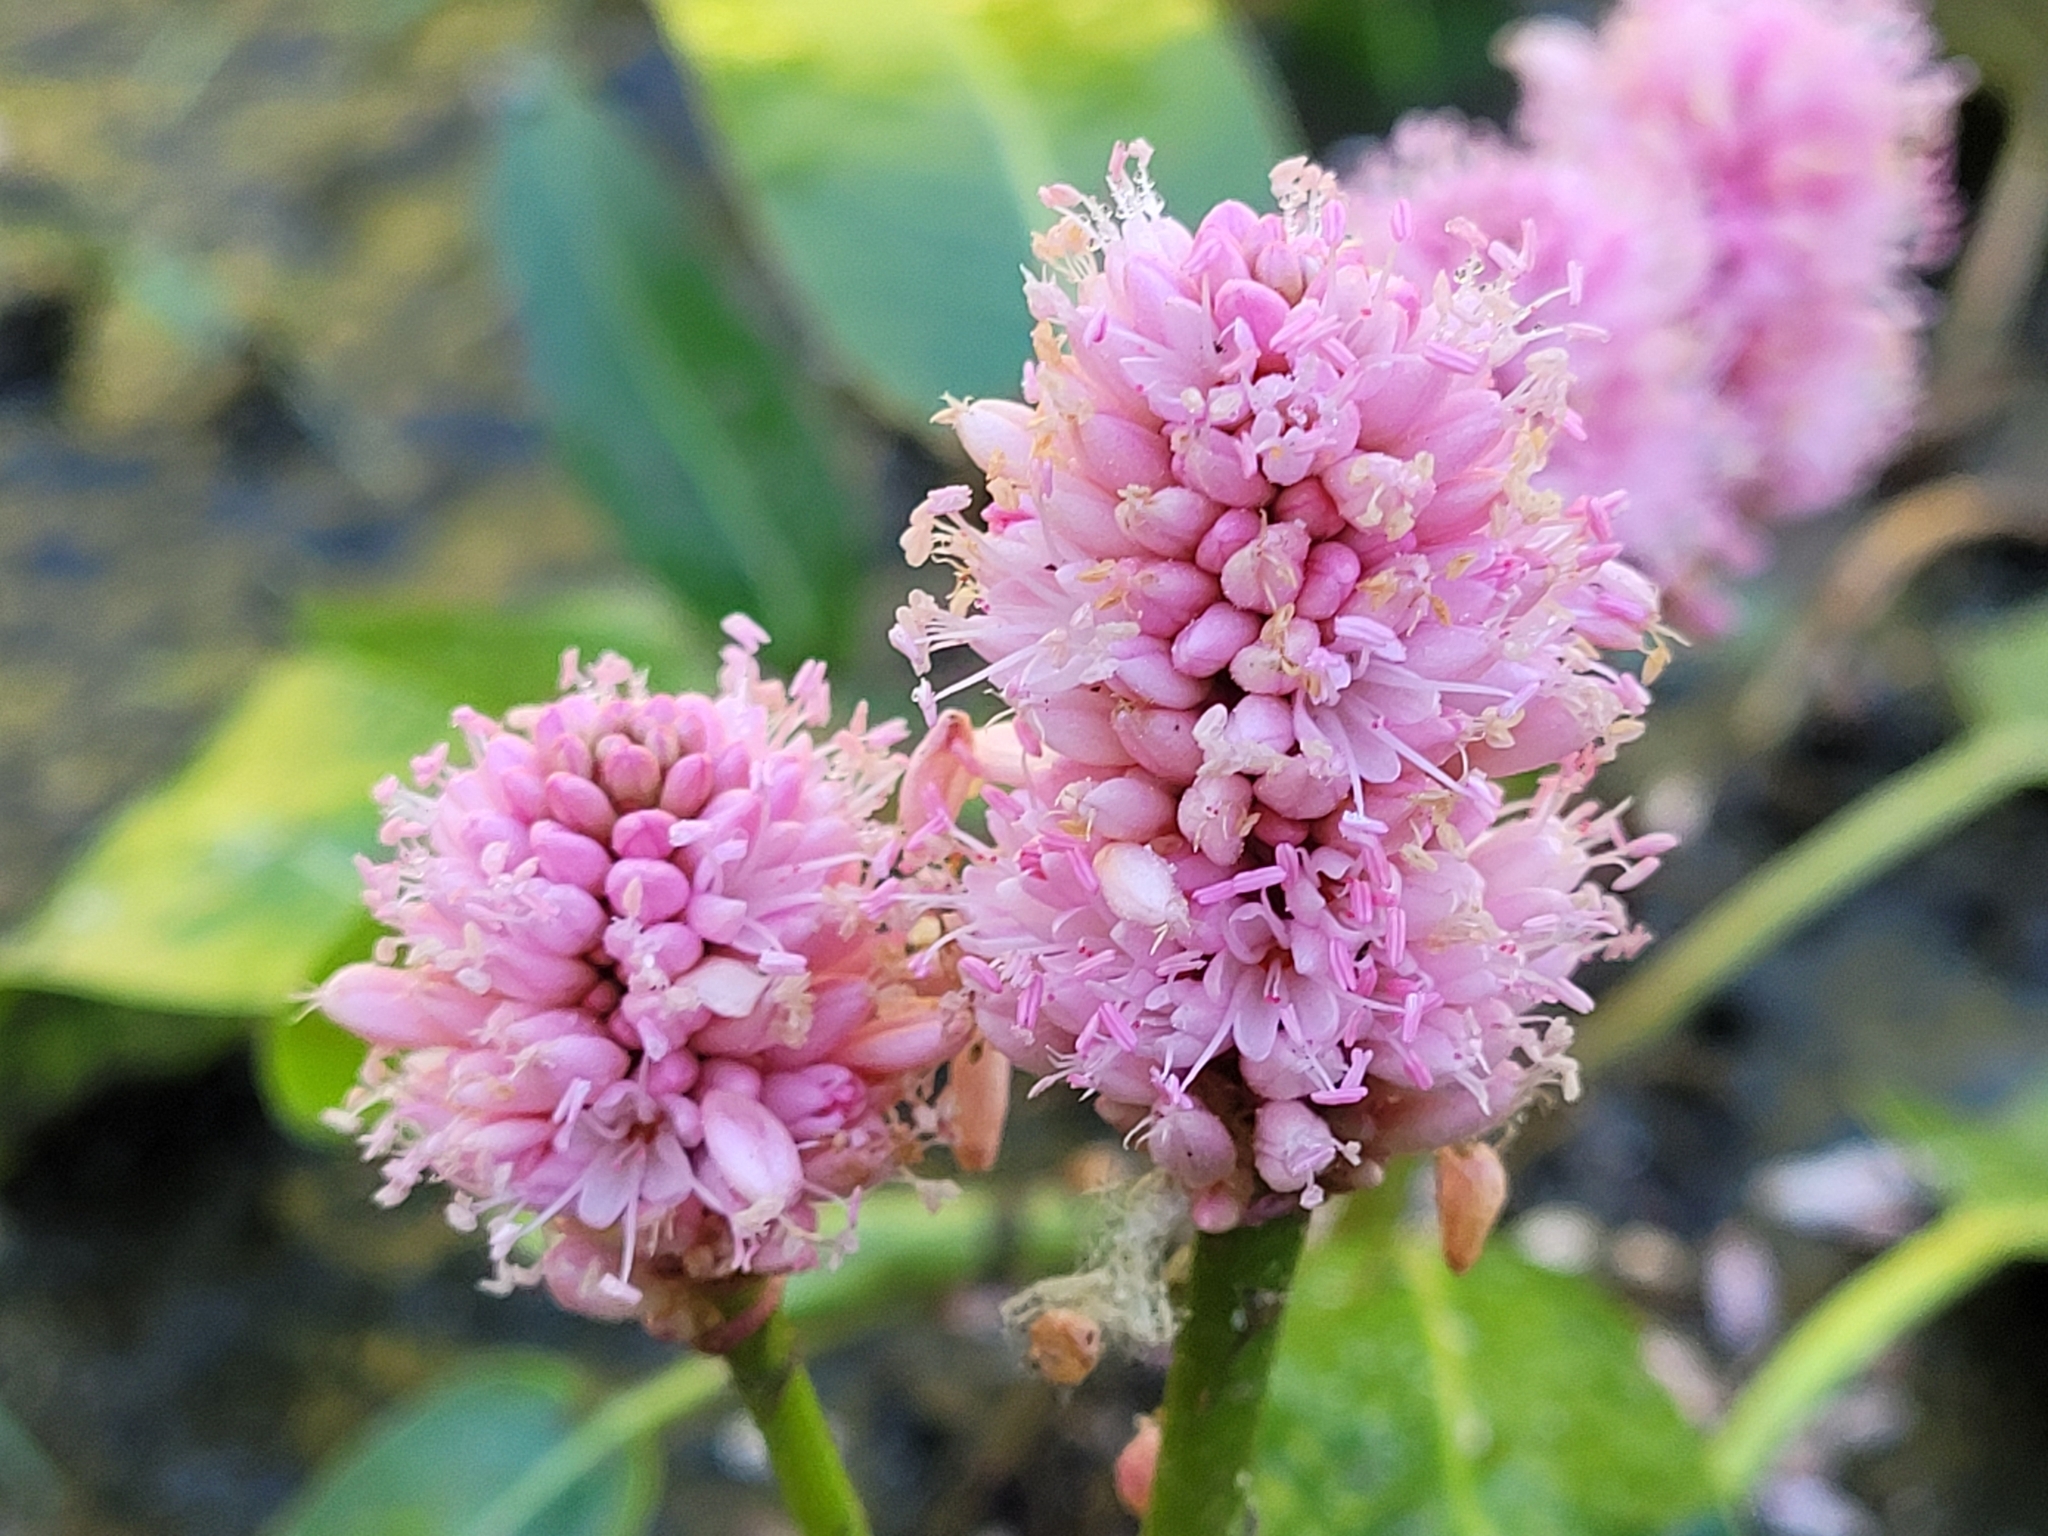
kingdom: Plantae
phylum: Tracheophyta
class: Magnoliopsida
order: Caryophyllales
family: Polygonaceae
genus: Persicaria
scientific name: Persicaria amphibia
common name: Amphibious bistort
